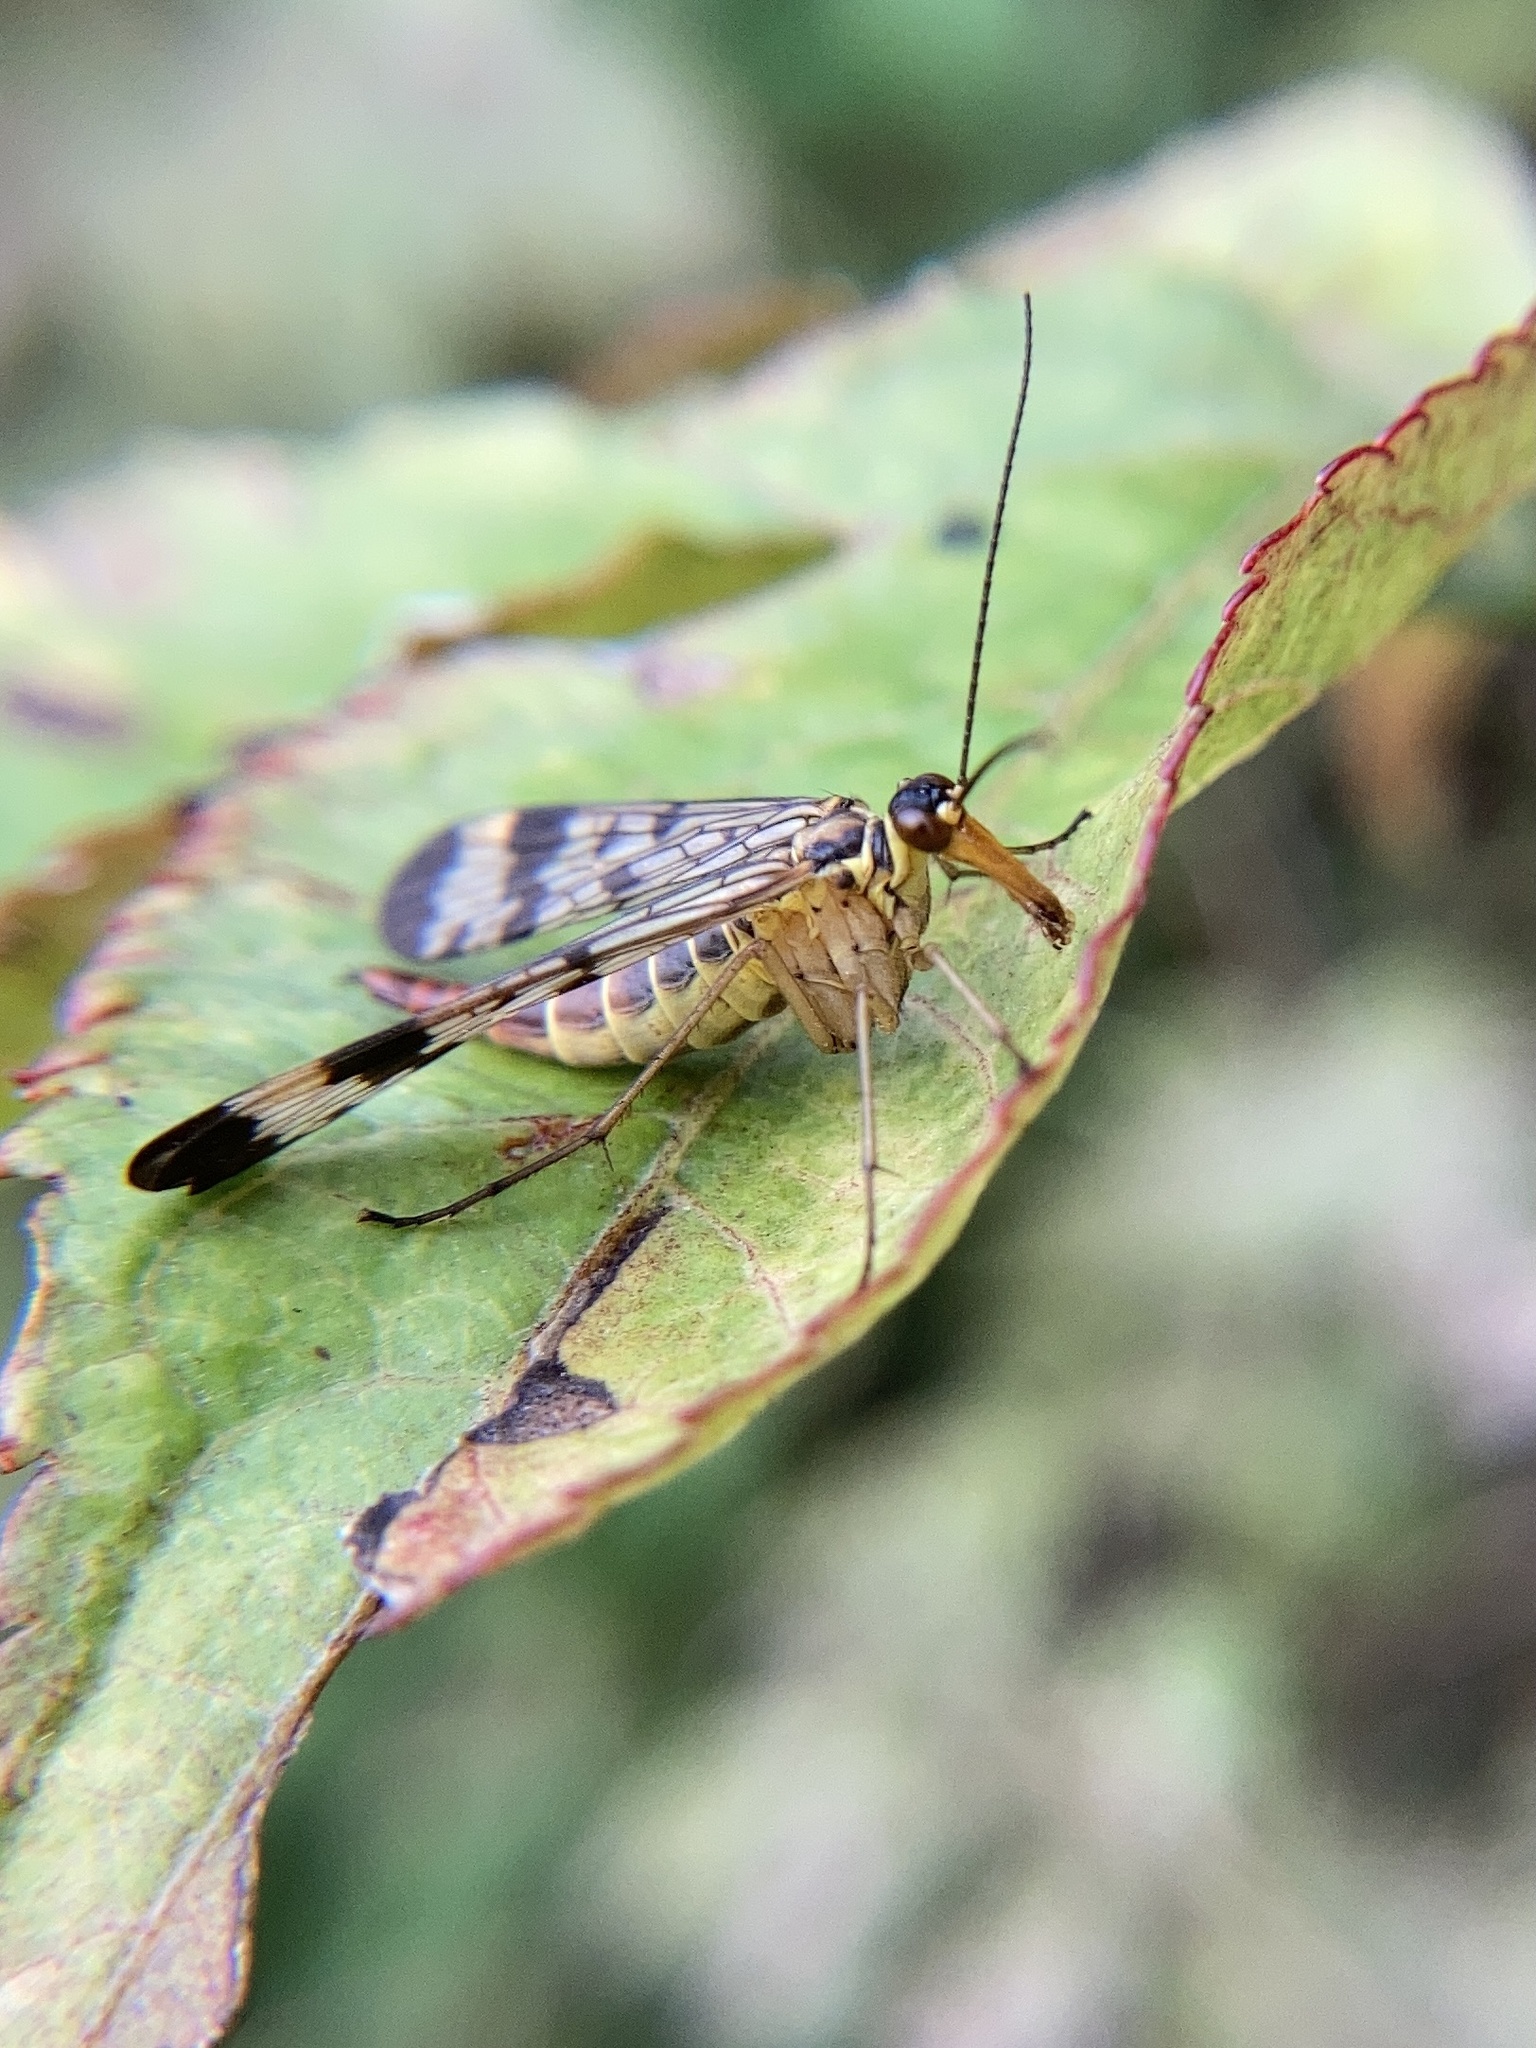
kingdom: Animalia
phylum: Arthropoda
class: Insecta
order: Mecoptera
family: Panorpidae
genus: Panorpa
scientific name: Panorpa communis
